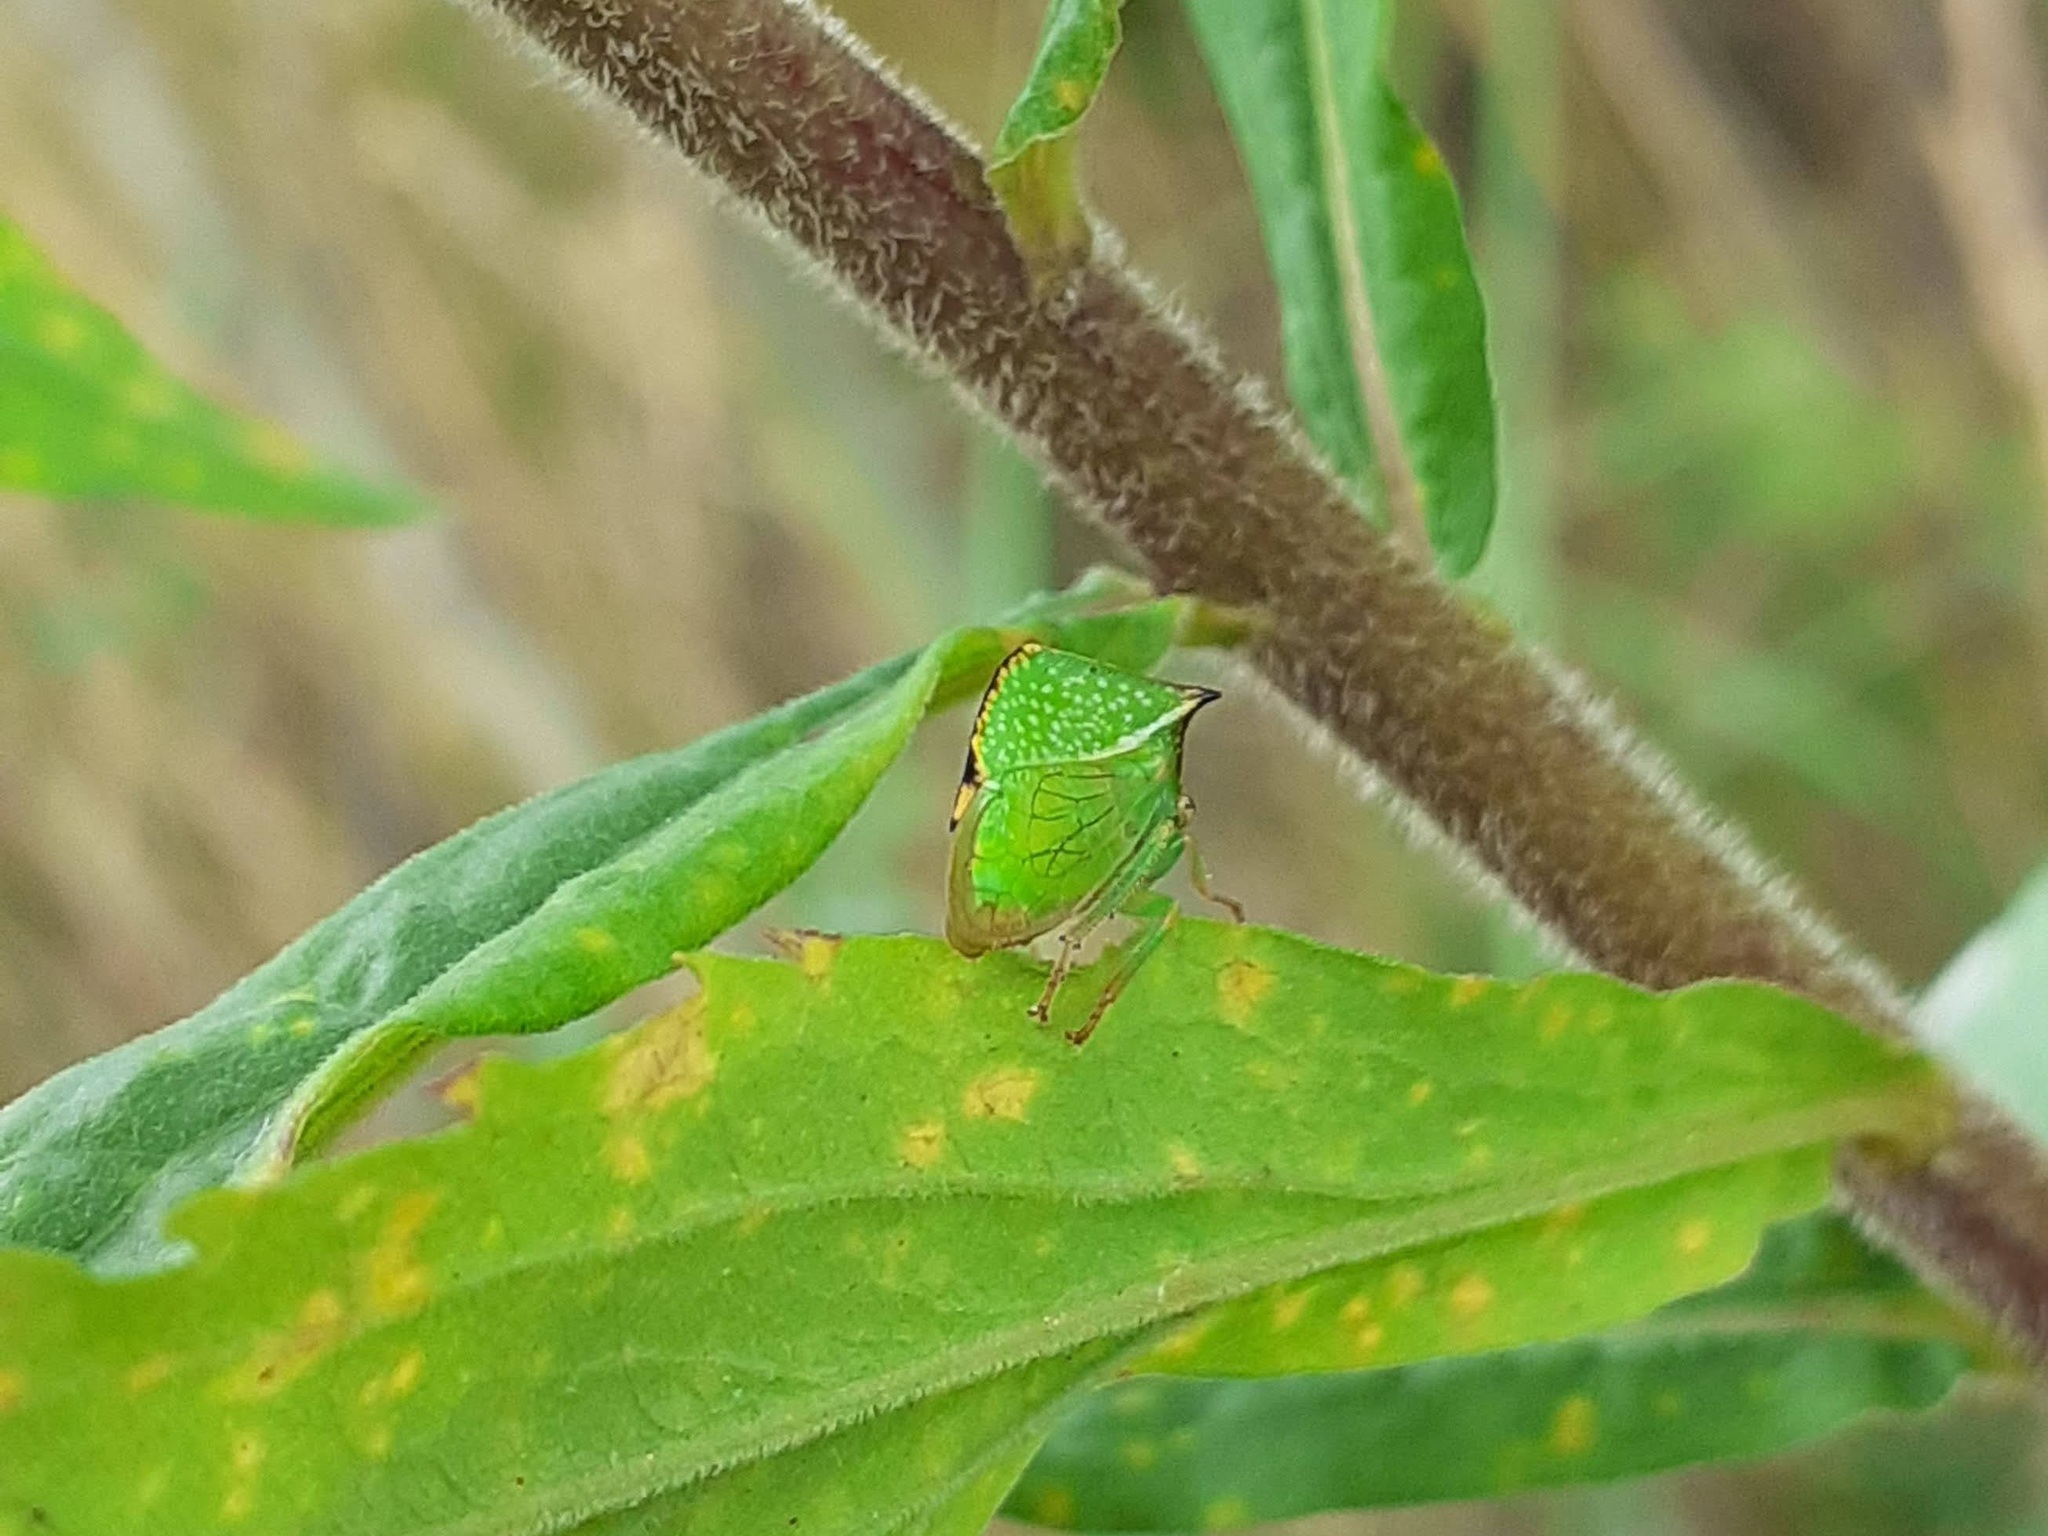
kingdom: Animalia
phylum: Arthropoda
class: Insecta
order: Hemiptera
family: Membracidae
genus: Stictocephala
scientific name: Stictocephala bisonia
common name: American buffalo treehopper
